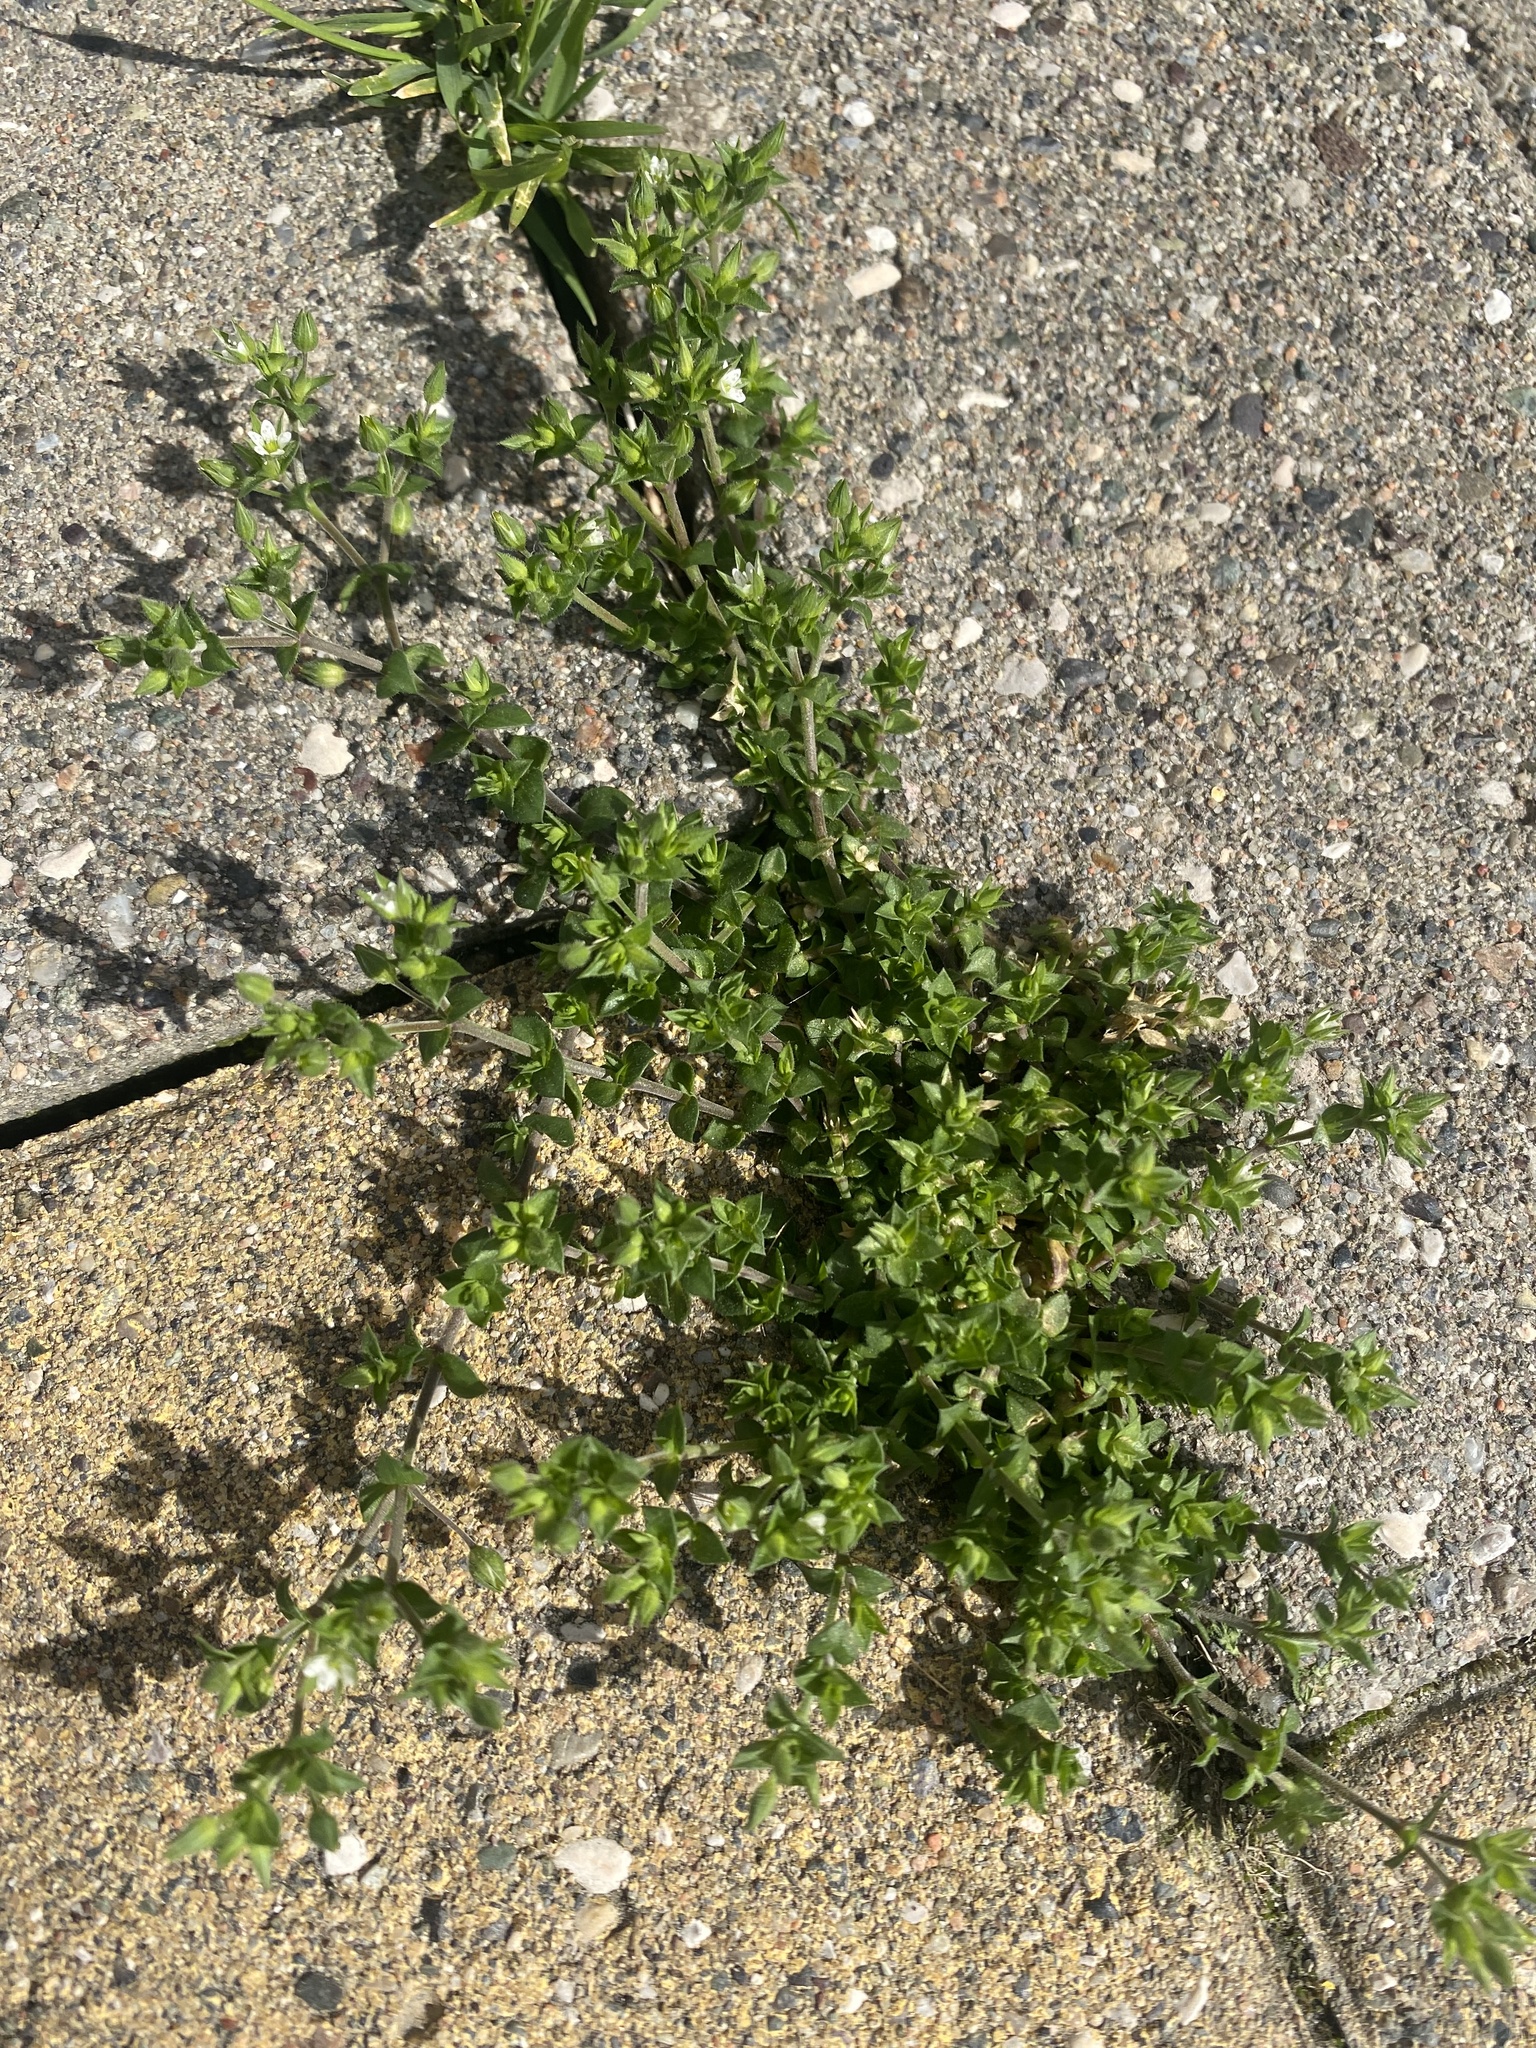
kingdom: Plantae
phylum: Tracheophyta
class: Magnoliopsida
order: Caryophyllales
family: Caryophyllaceae
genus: Arenaria
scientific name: Arenaria serpyllifolia
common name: Thyme-leaved sandwort
